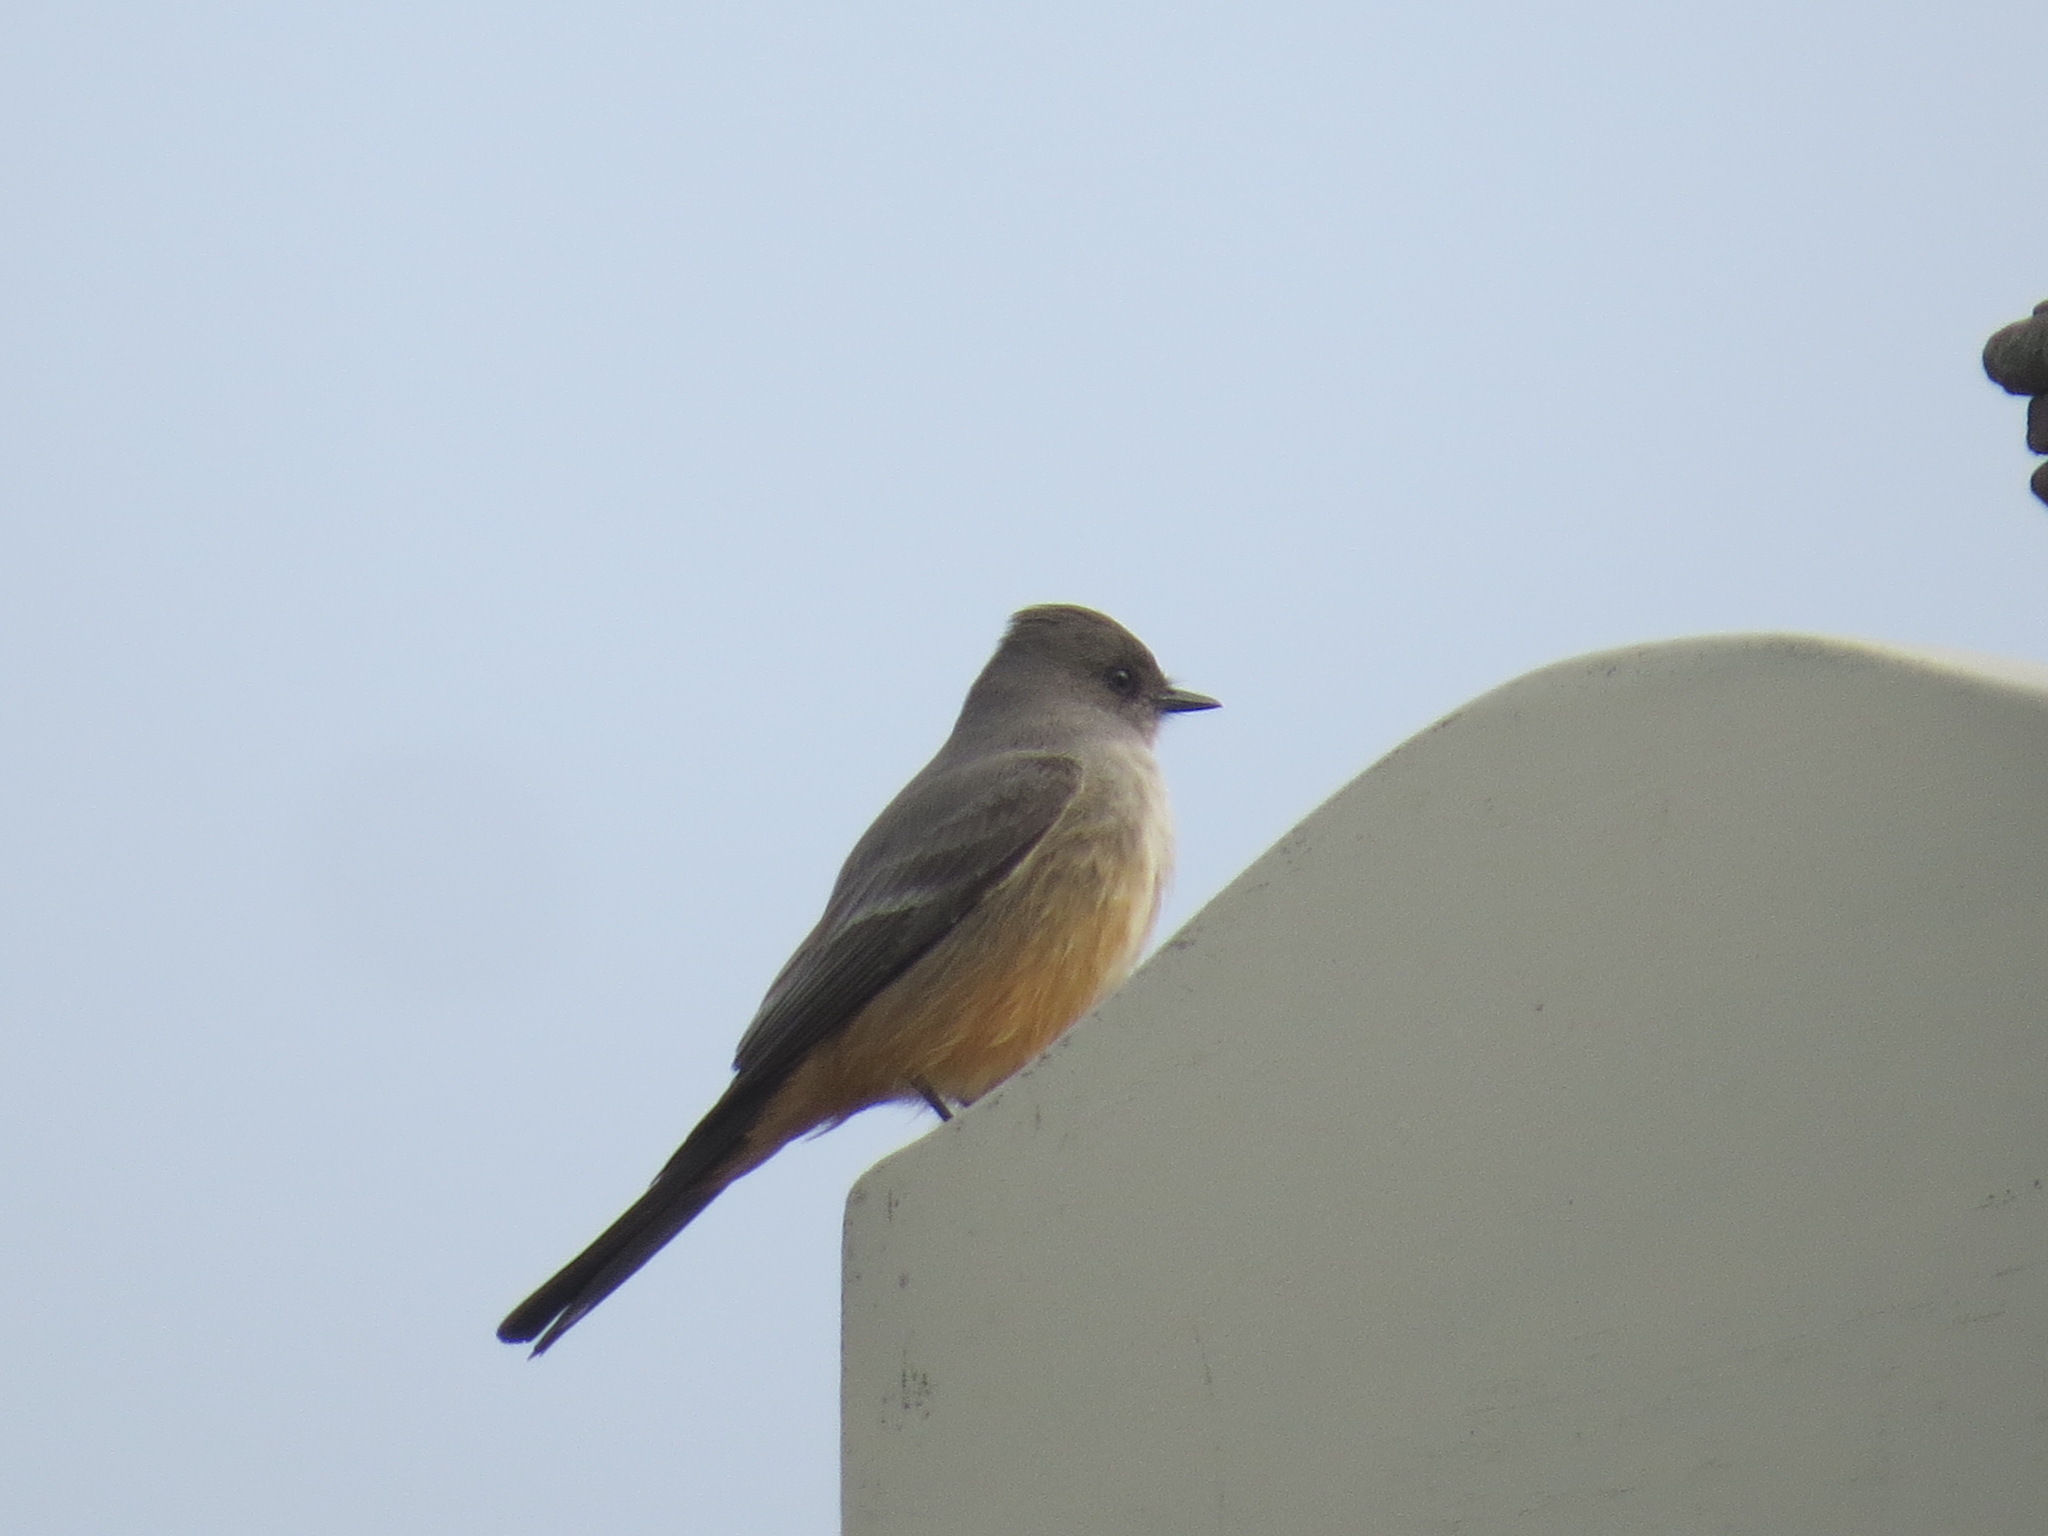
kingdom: Animalia
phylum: Chordata
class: Aves
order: Passeriformes
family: Tyrannidae
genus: Sayornis
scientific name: Sayornis saya
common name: Say's phoebe
